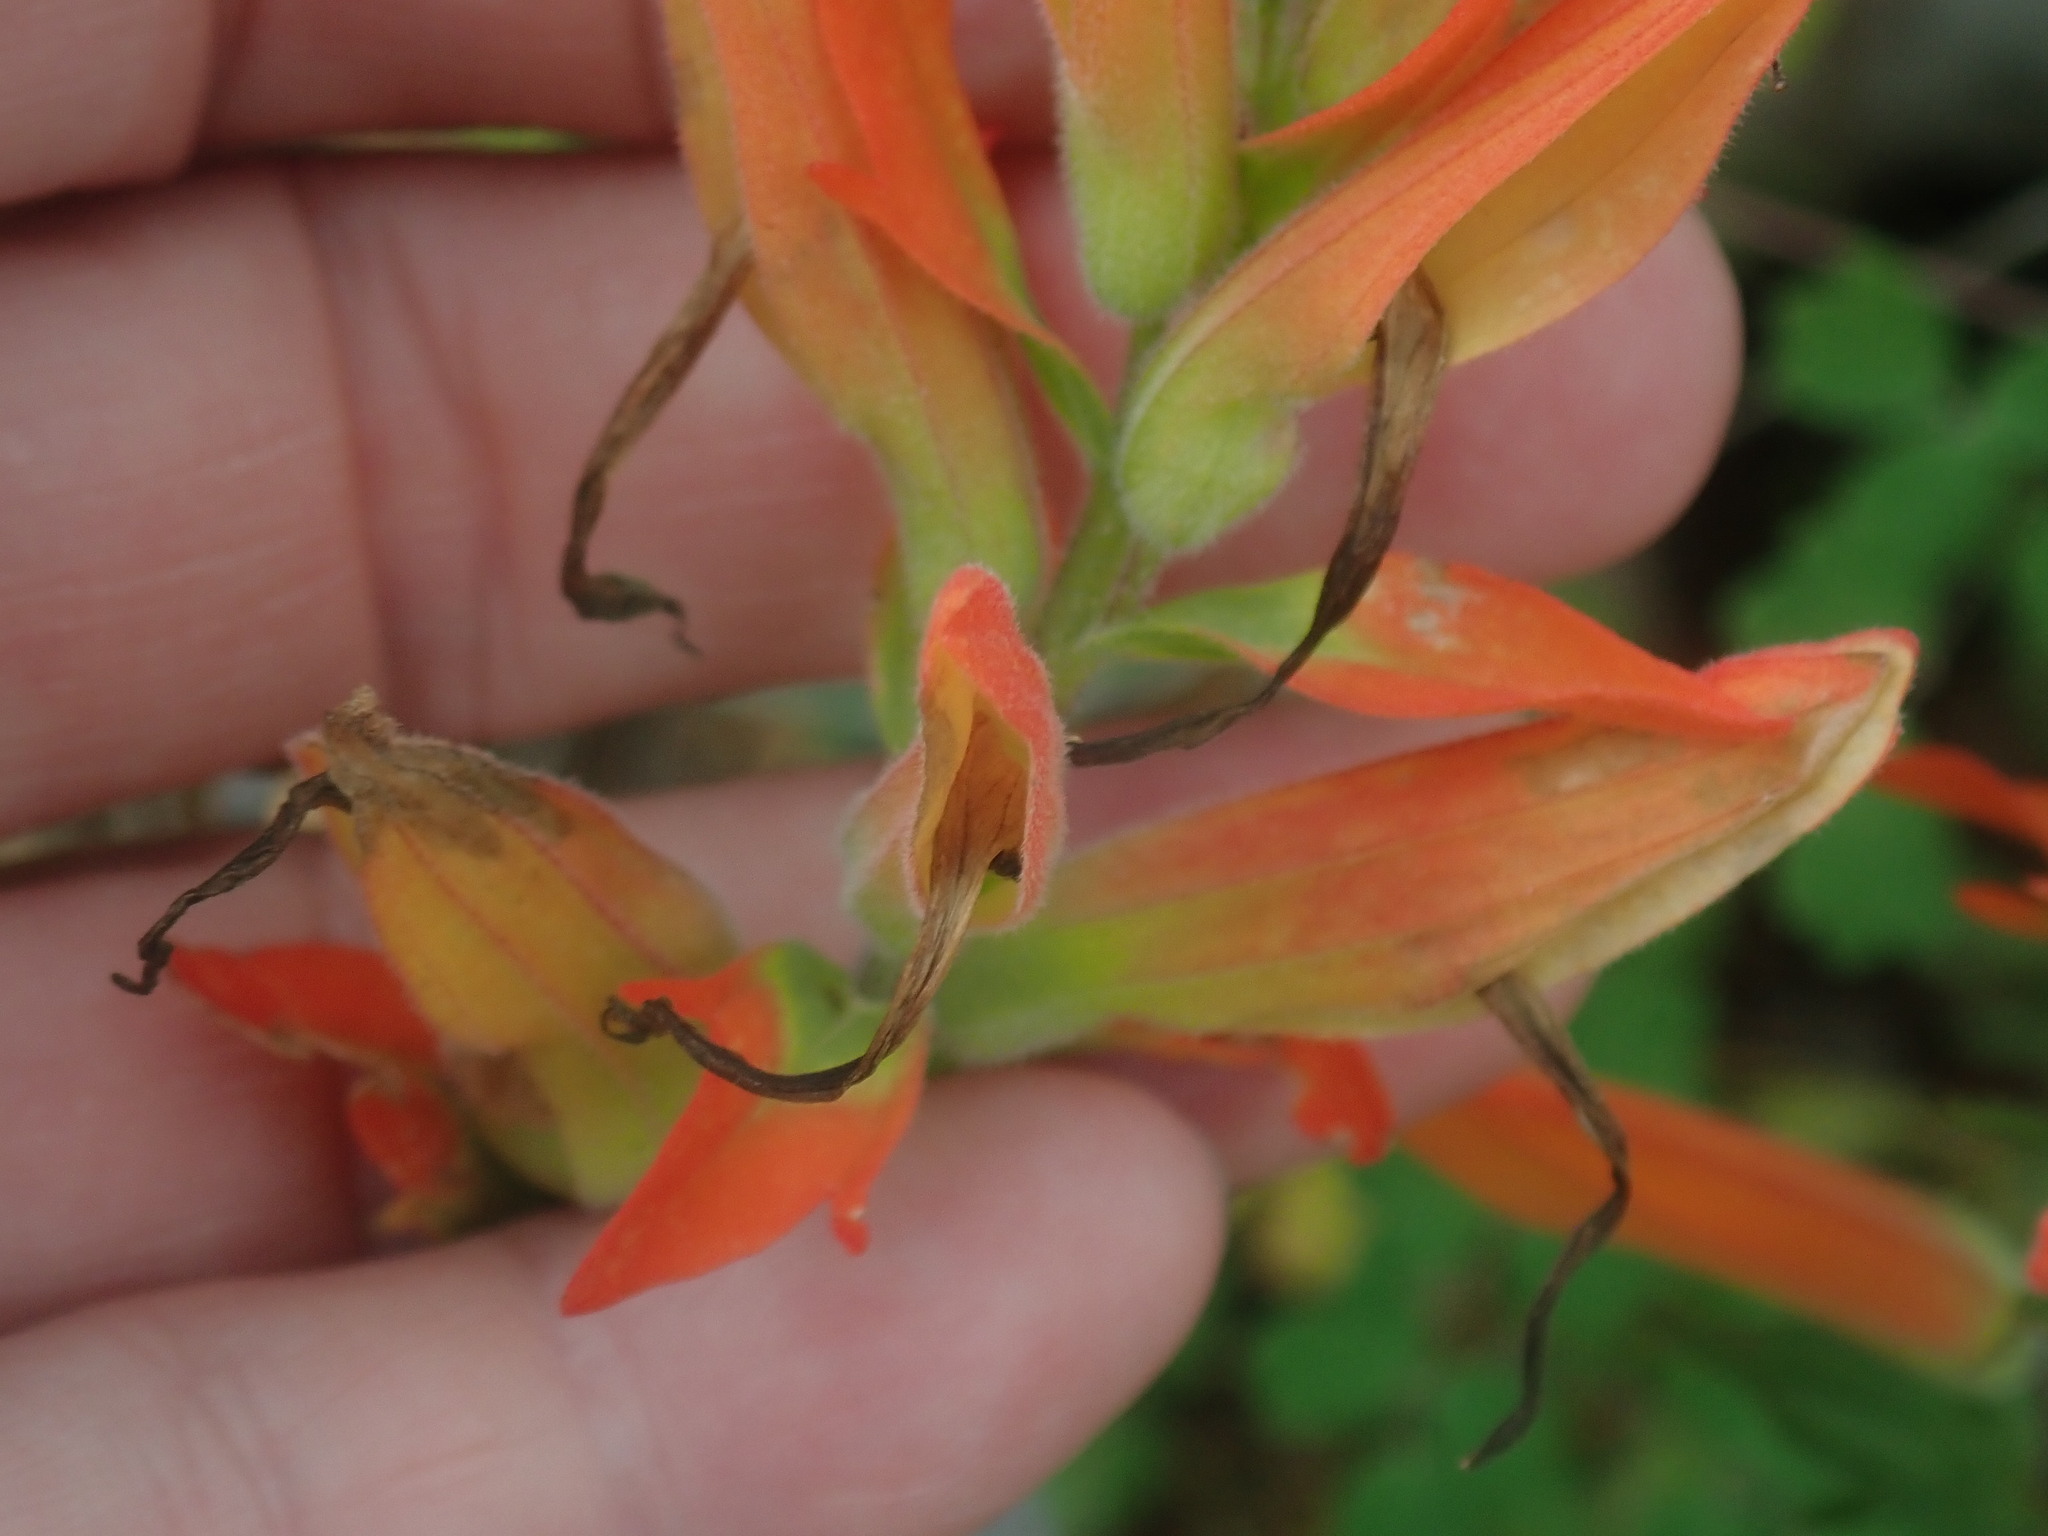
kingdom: Plantae
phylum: Tracheophyta
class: Magnoliopsida
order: Lamiales
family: Orobanchaceae
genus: Castilleja
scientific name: Castilleja patriotica
